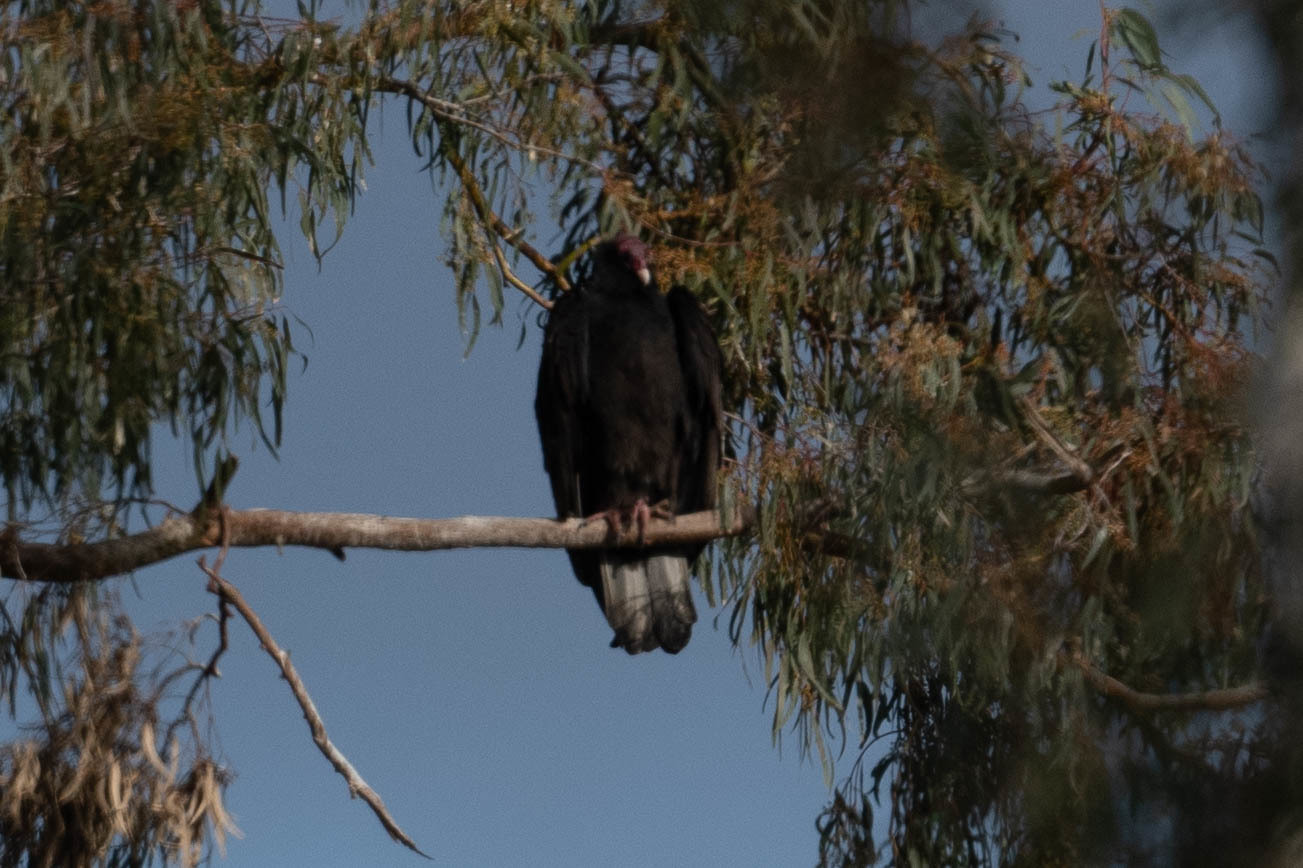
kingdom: Animalia
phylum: Chordata
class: Aves
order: Accipitriformes
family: Cathartidae
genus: Cathartes
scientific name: Cathartes aura
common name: Turkey vulture
